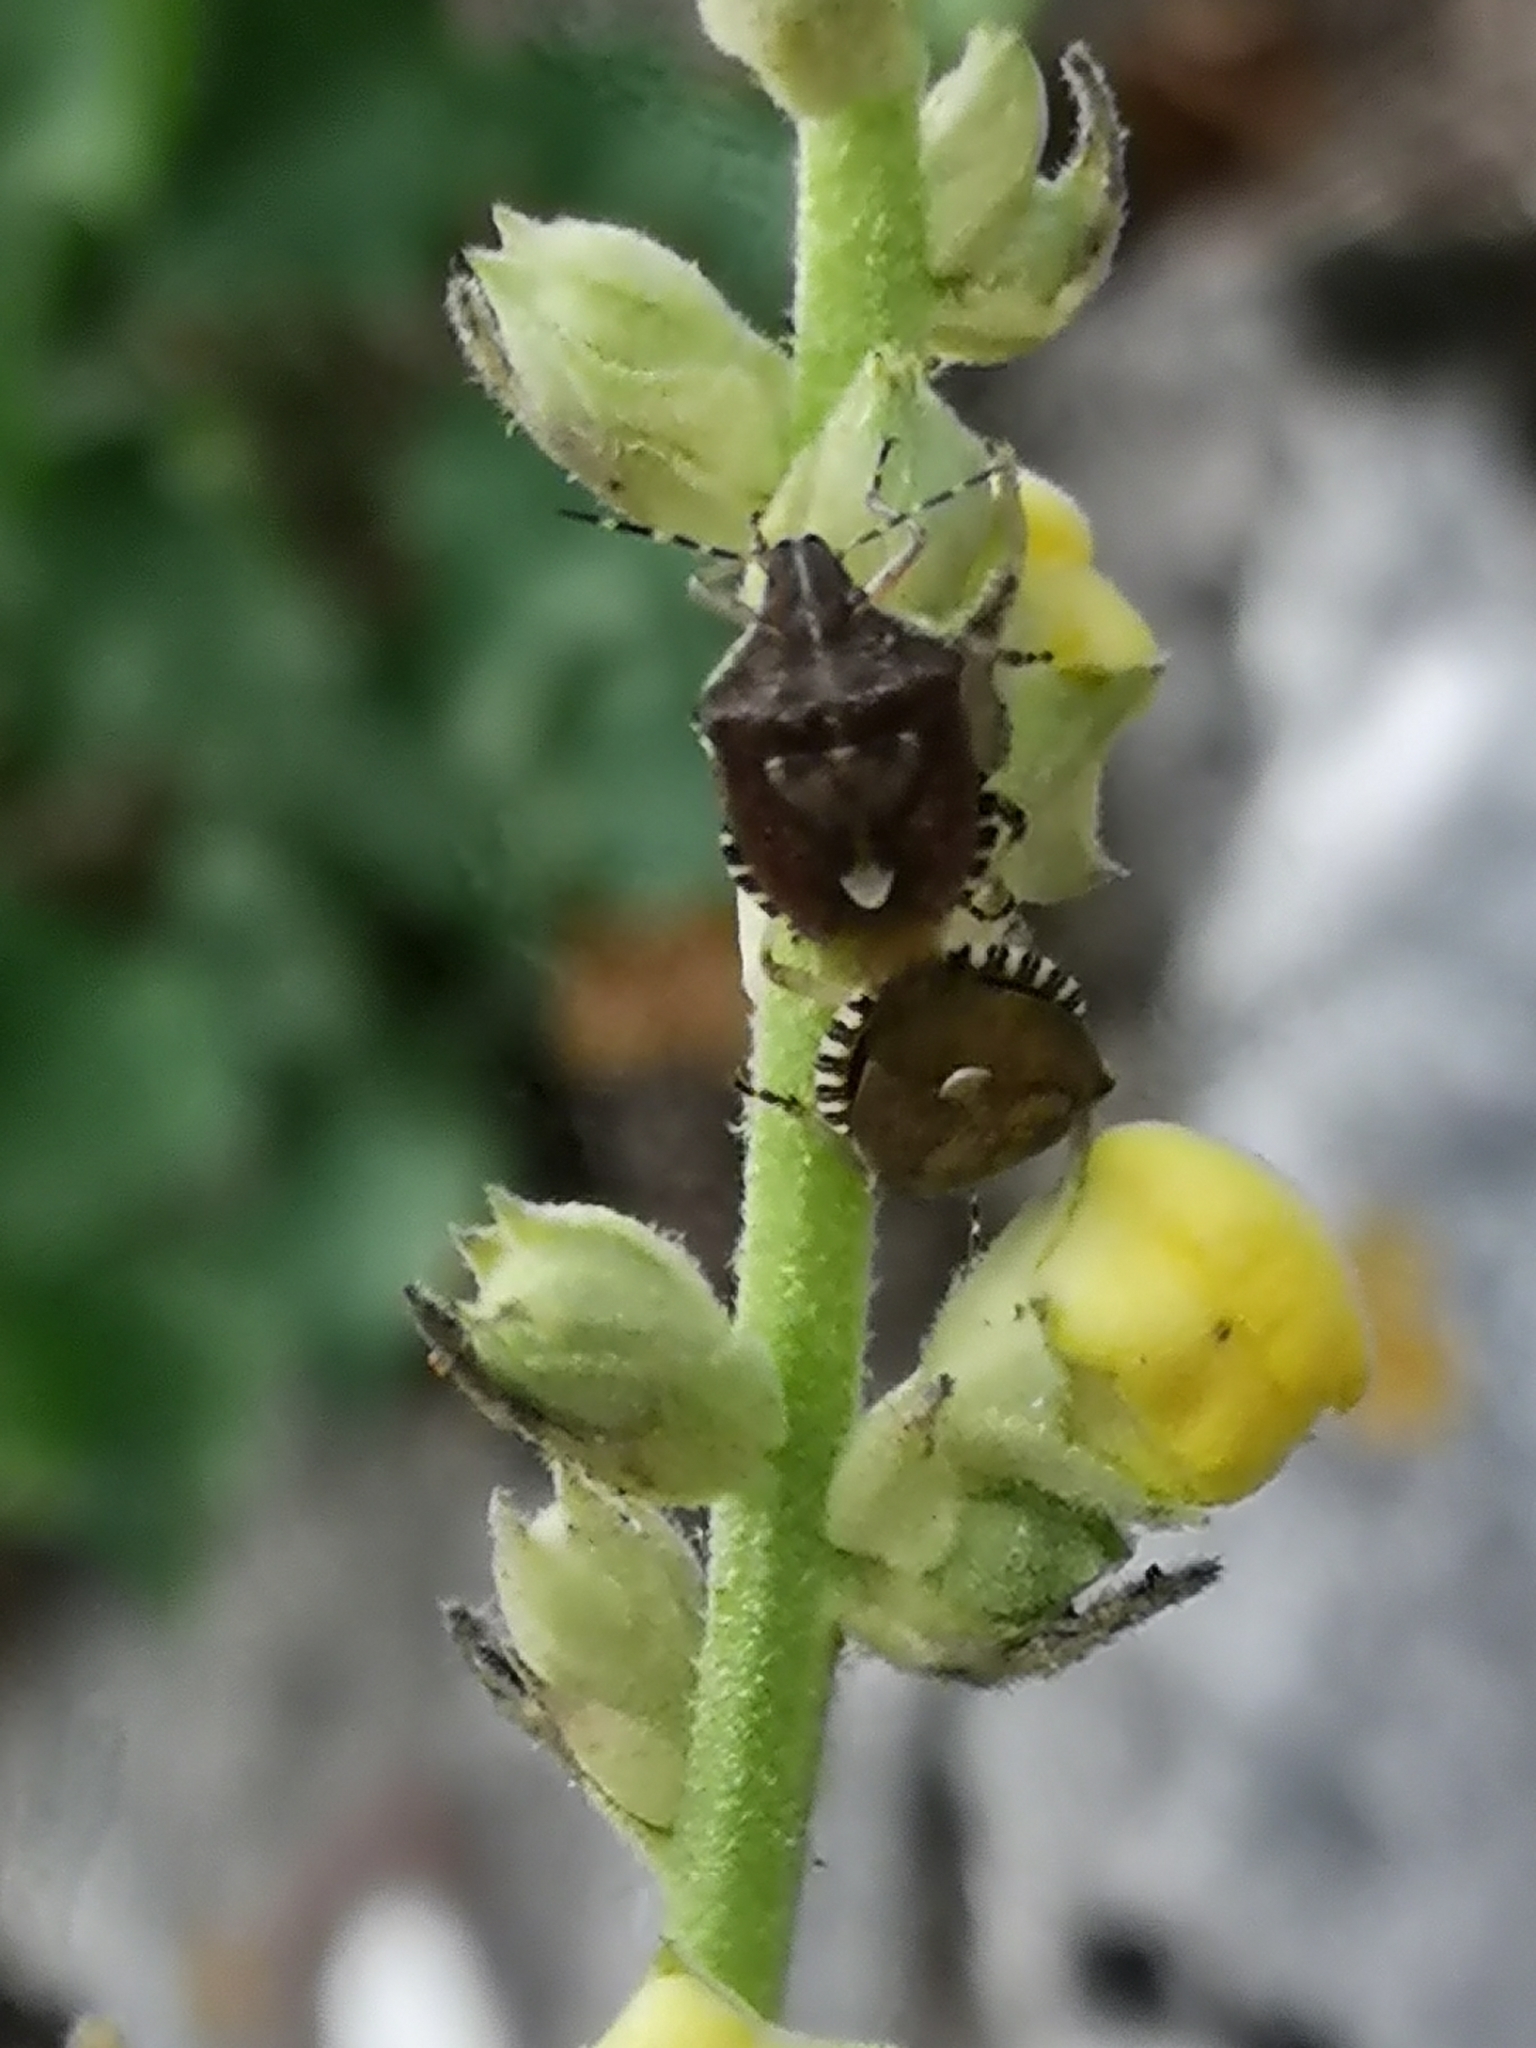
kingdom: Animalia
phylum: Arthropoda
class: Insecta
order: Hemiptera
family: Pentatomidae
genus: Dolycoris
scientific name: Dolycoris baccarum
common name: Sloe bug
